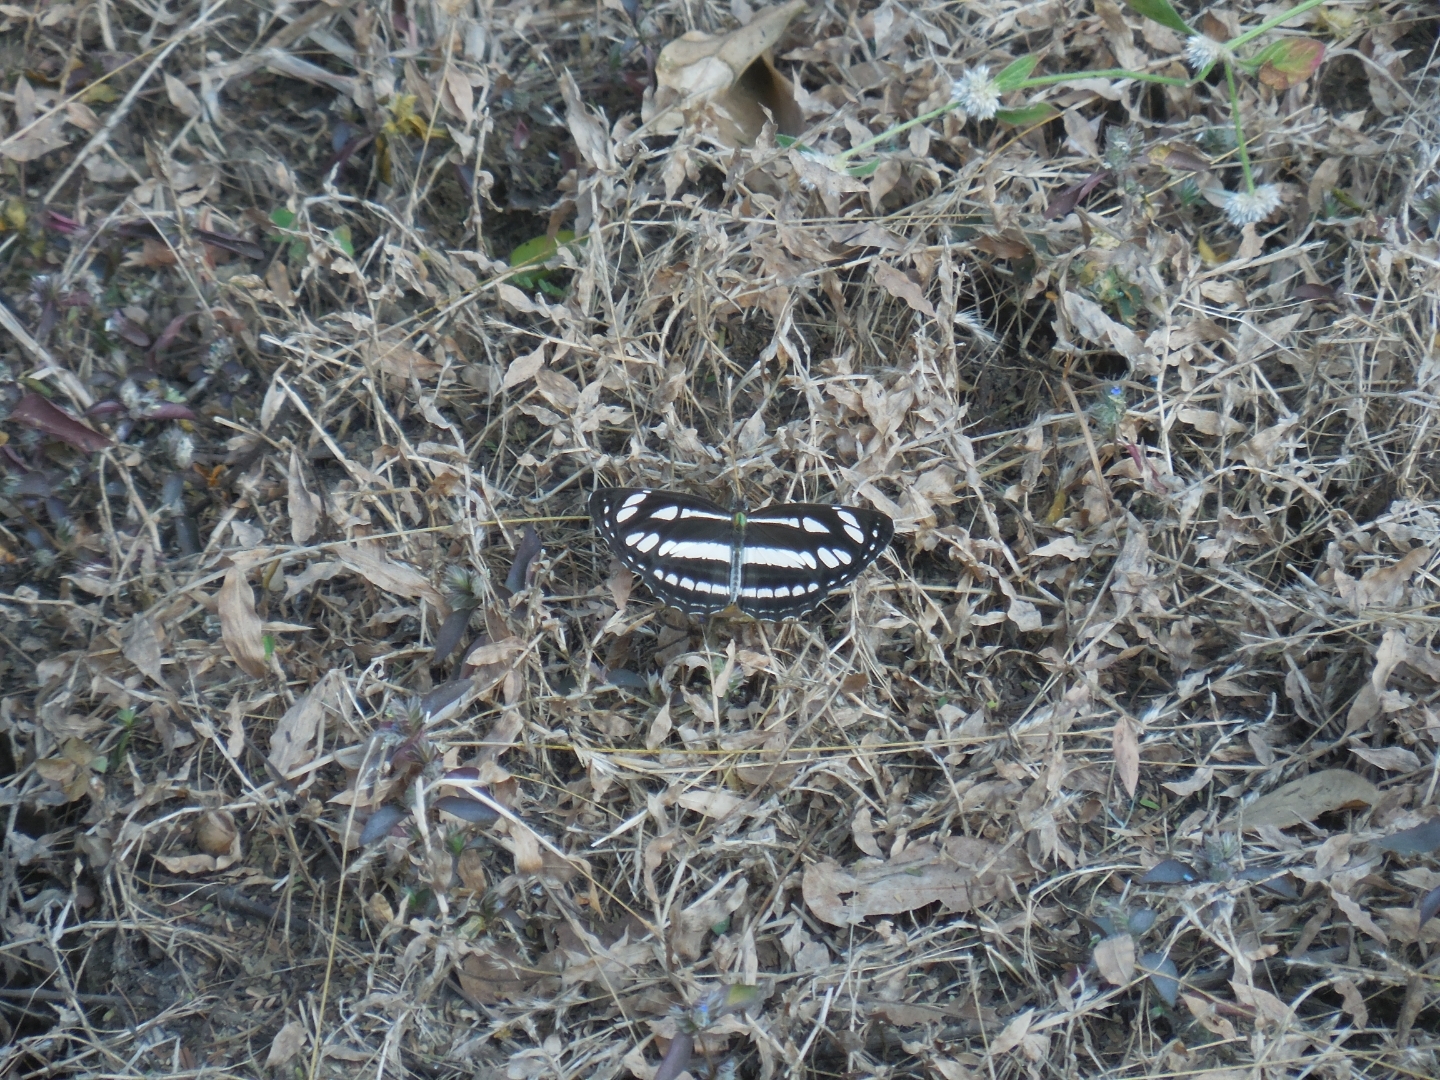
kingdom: Animalia
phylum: Arthropoda
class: Insecta
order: Lepidoptera
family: Nymphalidae
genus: Neptis
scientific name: Neptis hylas
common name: Common sailer
